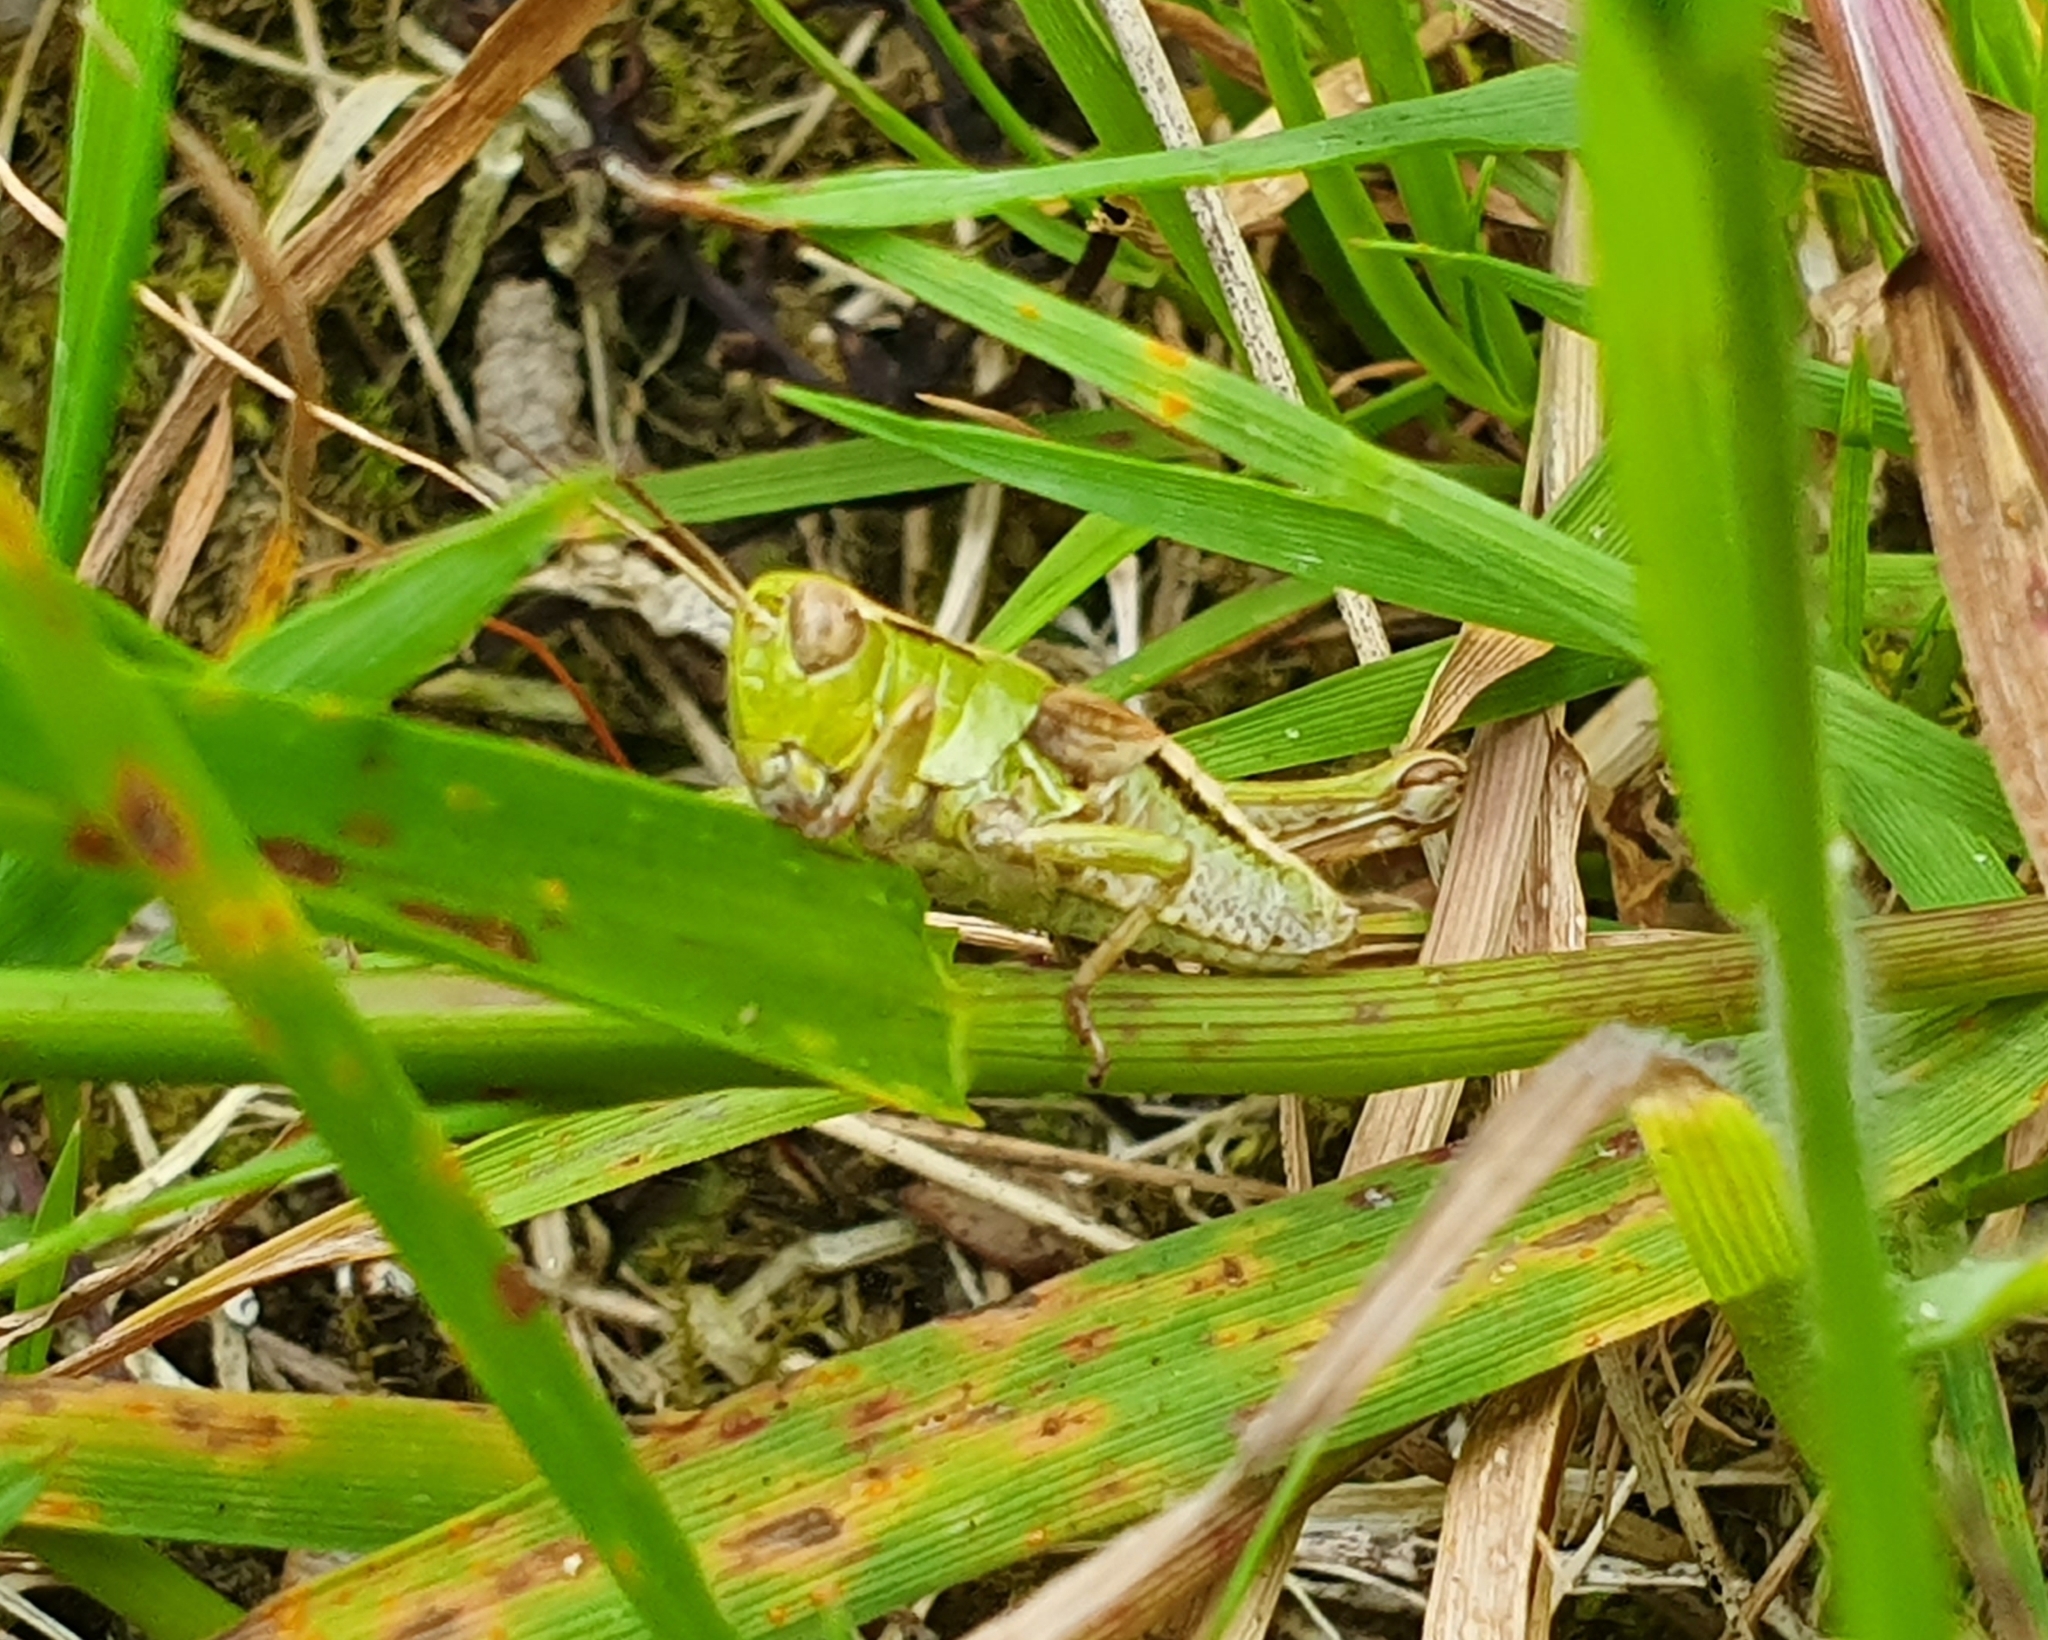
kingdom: Animalia
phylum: Arthropoda
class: Insecta
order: Orthoptera
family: Acrididae
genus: Phaulacridium
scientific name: Phaulacridium marginale
